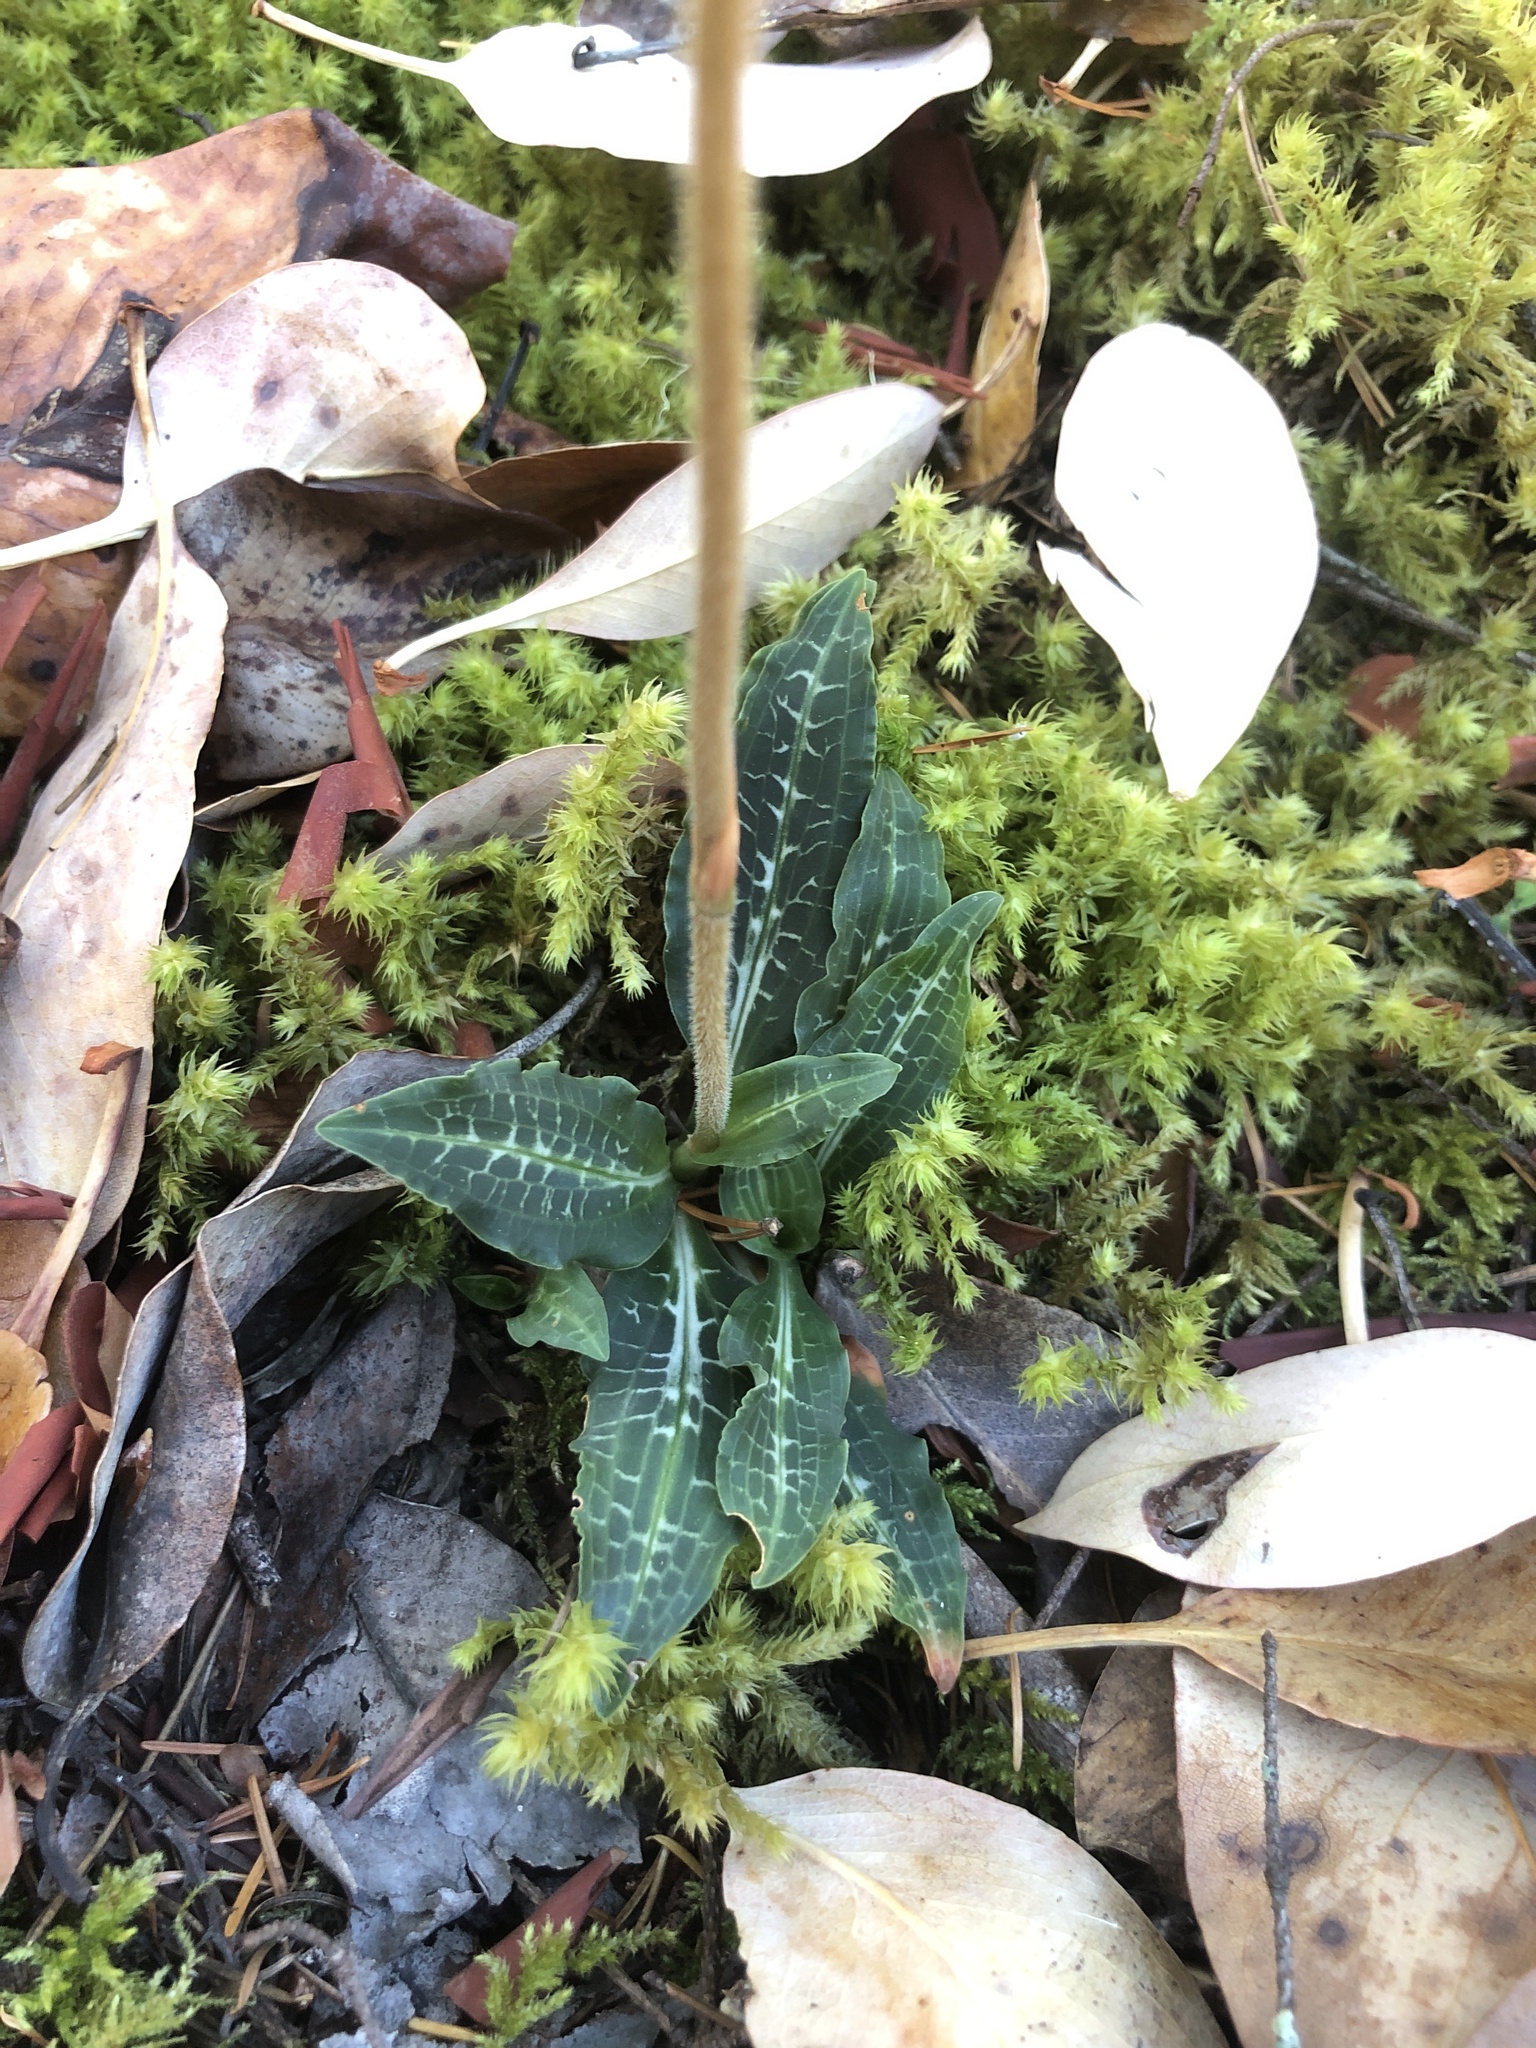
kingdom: Plantae
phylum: Tracheophyta
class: Liliopsida
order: Asparagales
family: Orchidaceae
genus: Goodyera
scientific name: Goodyera oblongifolia
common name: Giant rattlesnake-plantain
